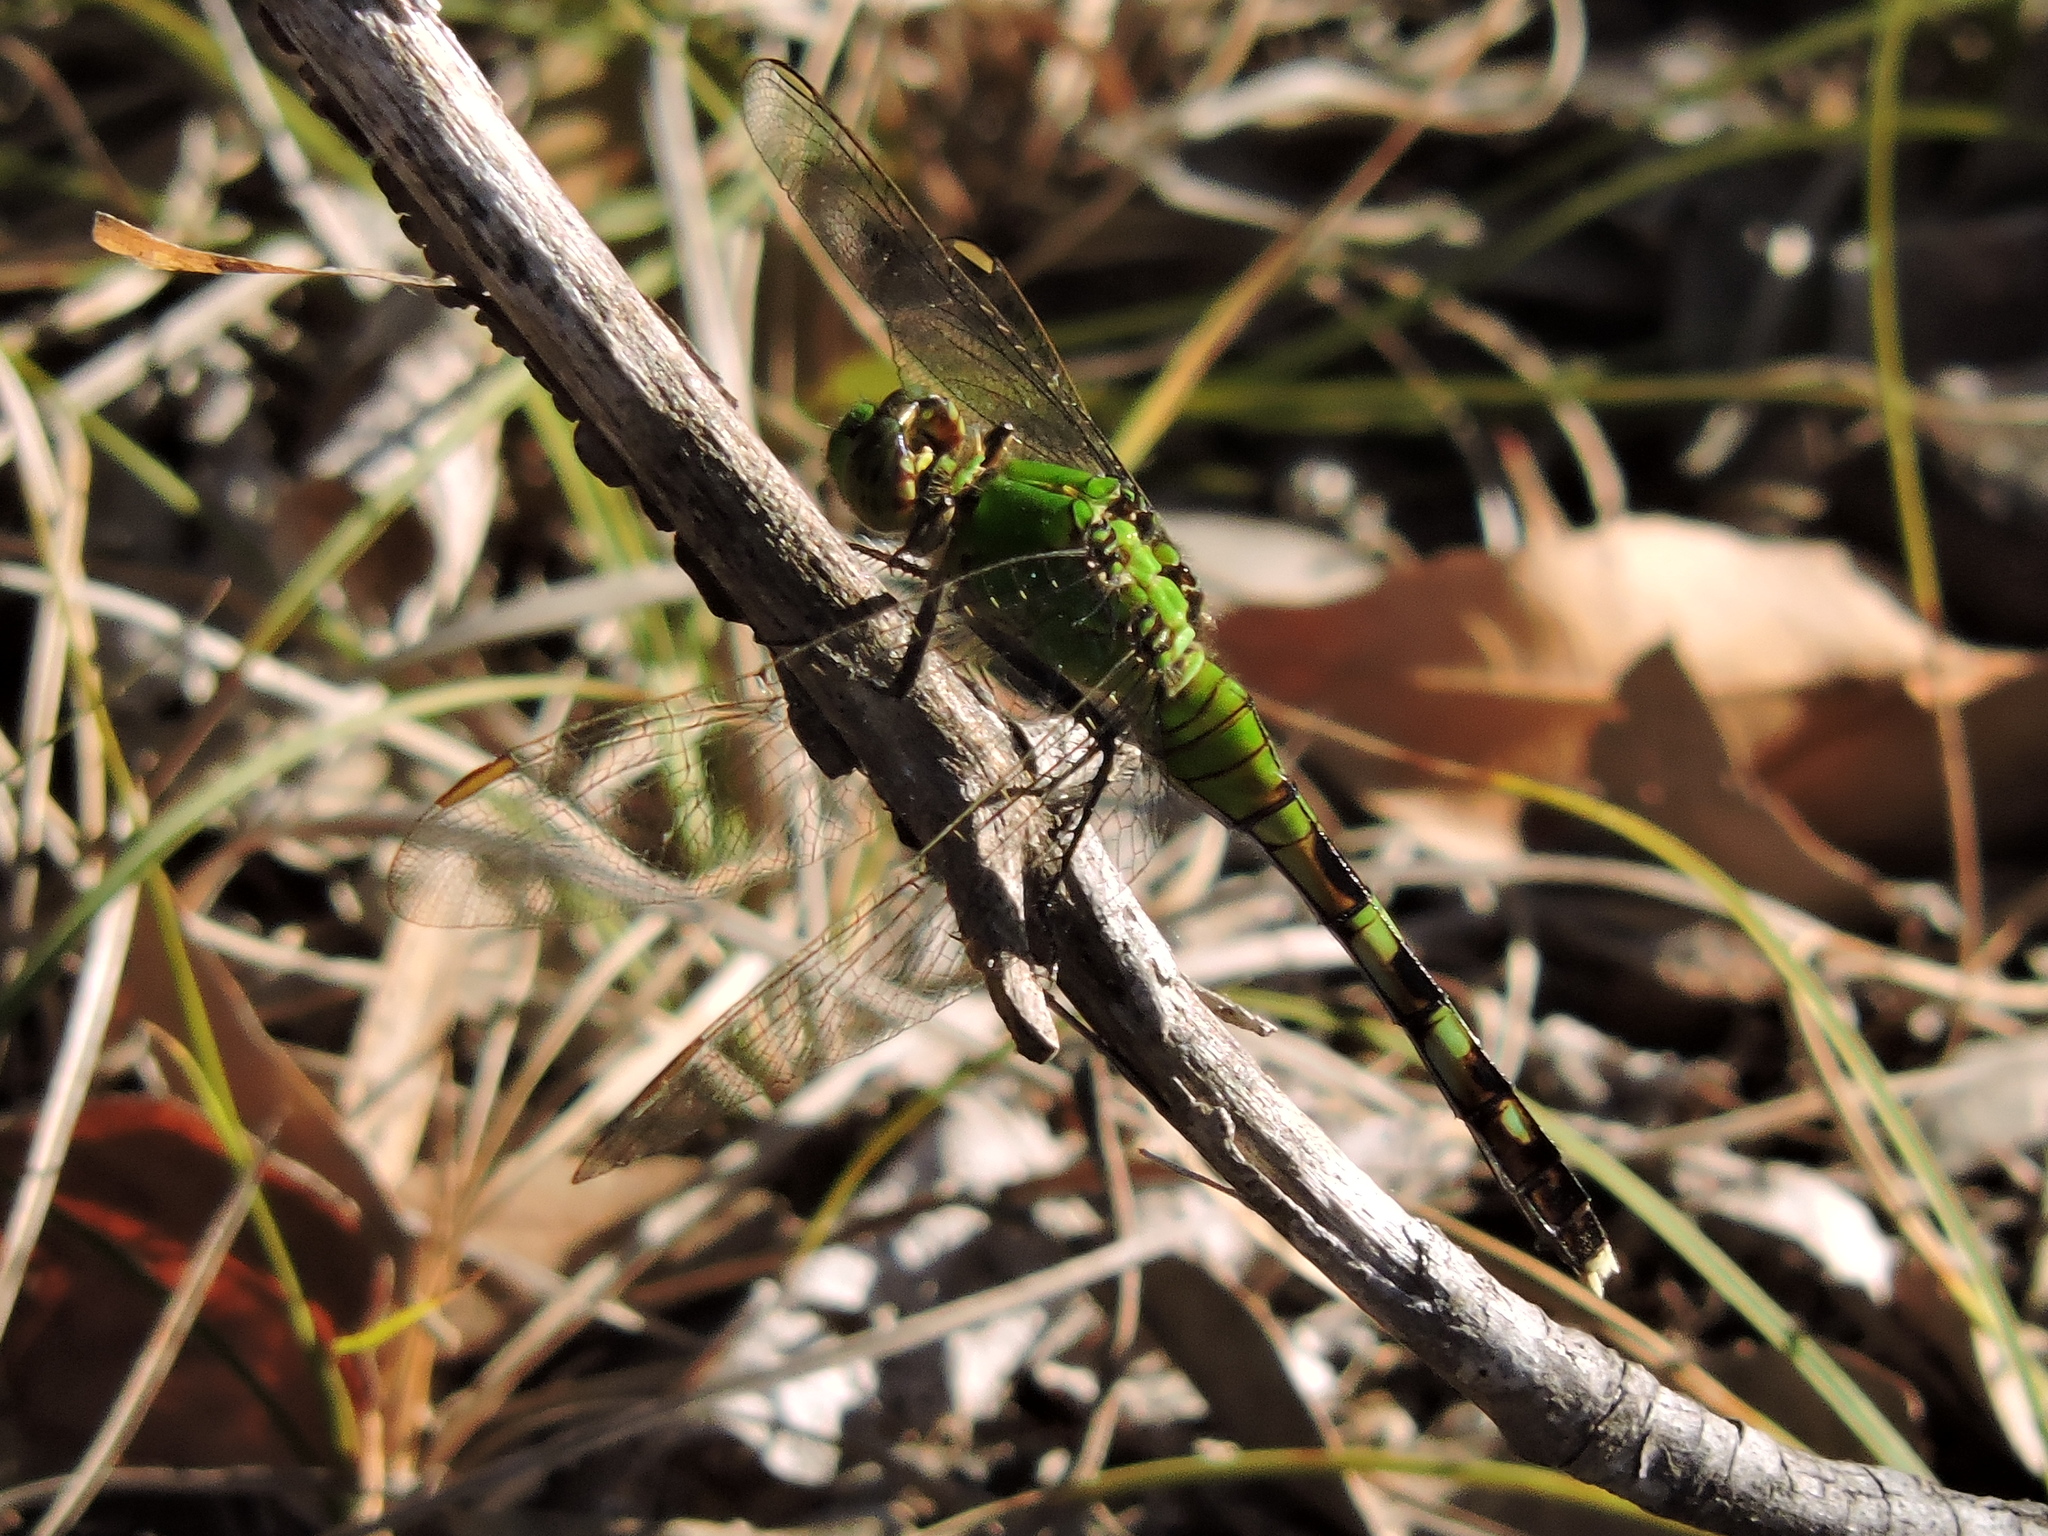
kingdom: Animalia
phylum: Arthropoda
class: Insecta
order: Odonata
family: Libellulidae
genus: Erythemis
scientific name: Erythemis simplicicollis
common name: Eastern pondhawk
